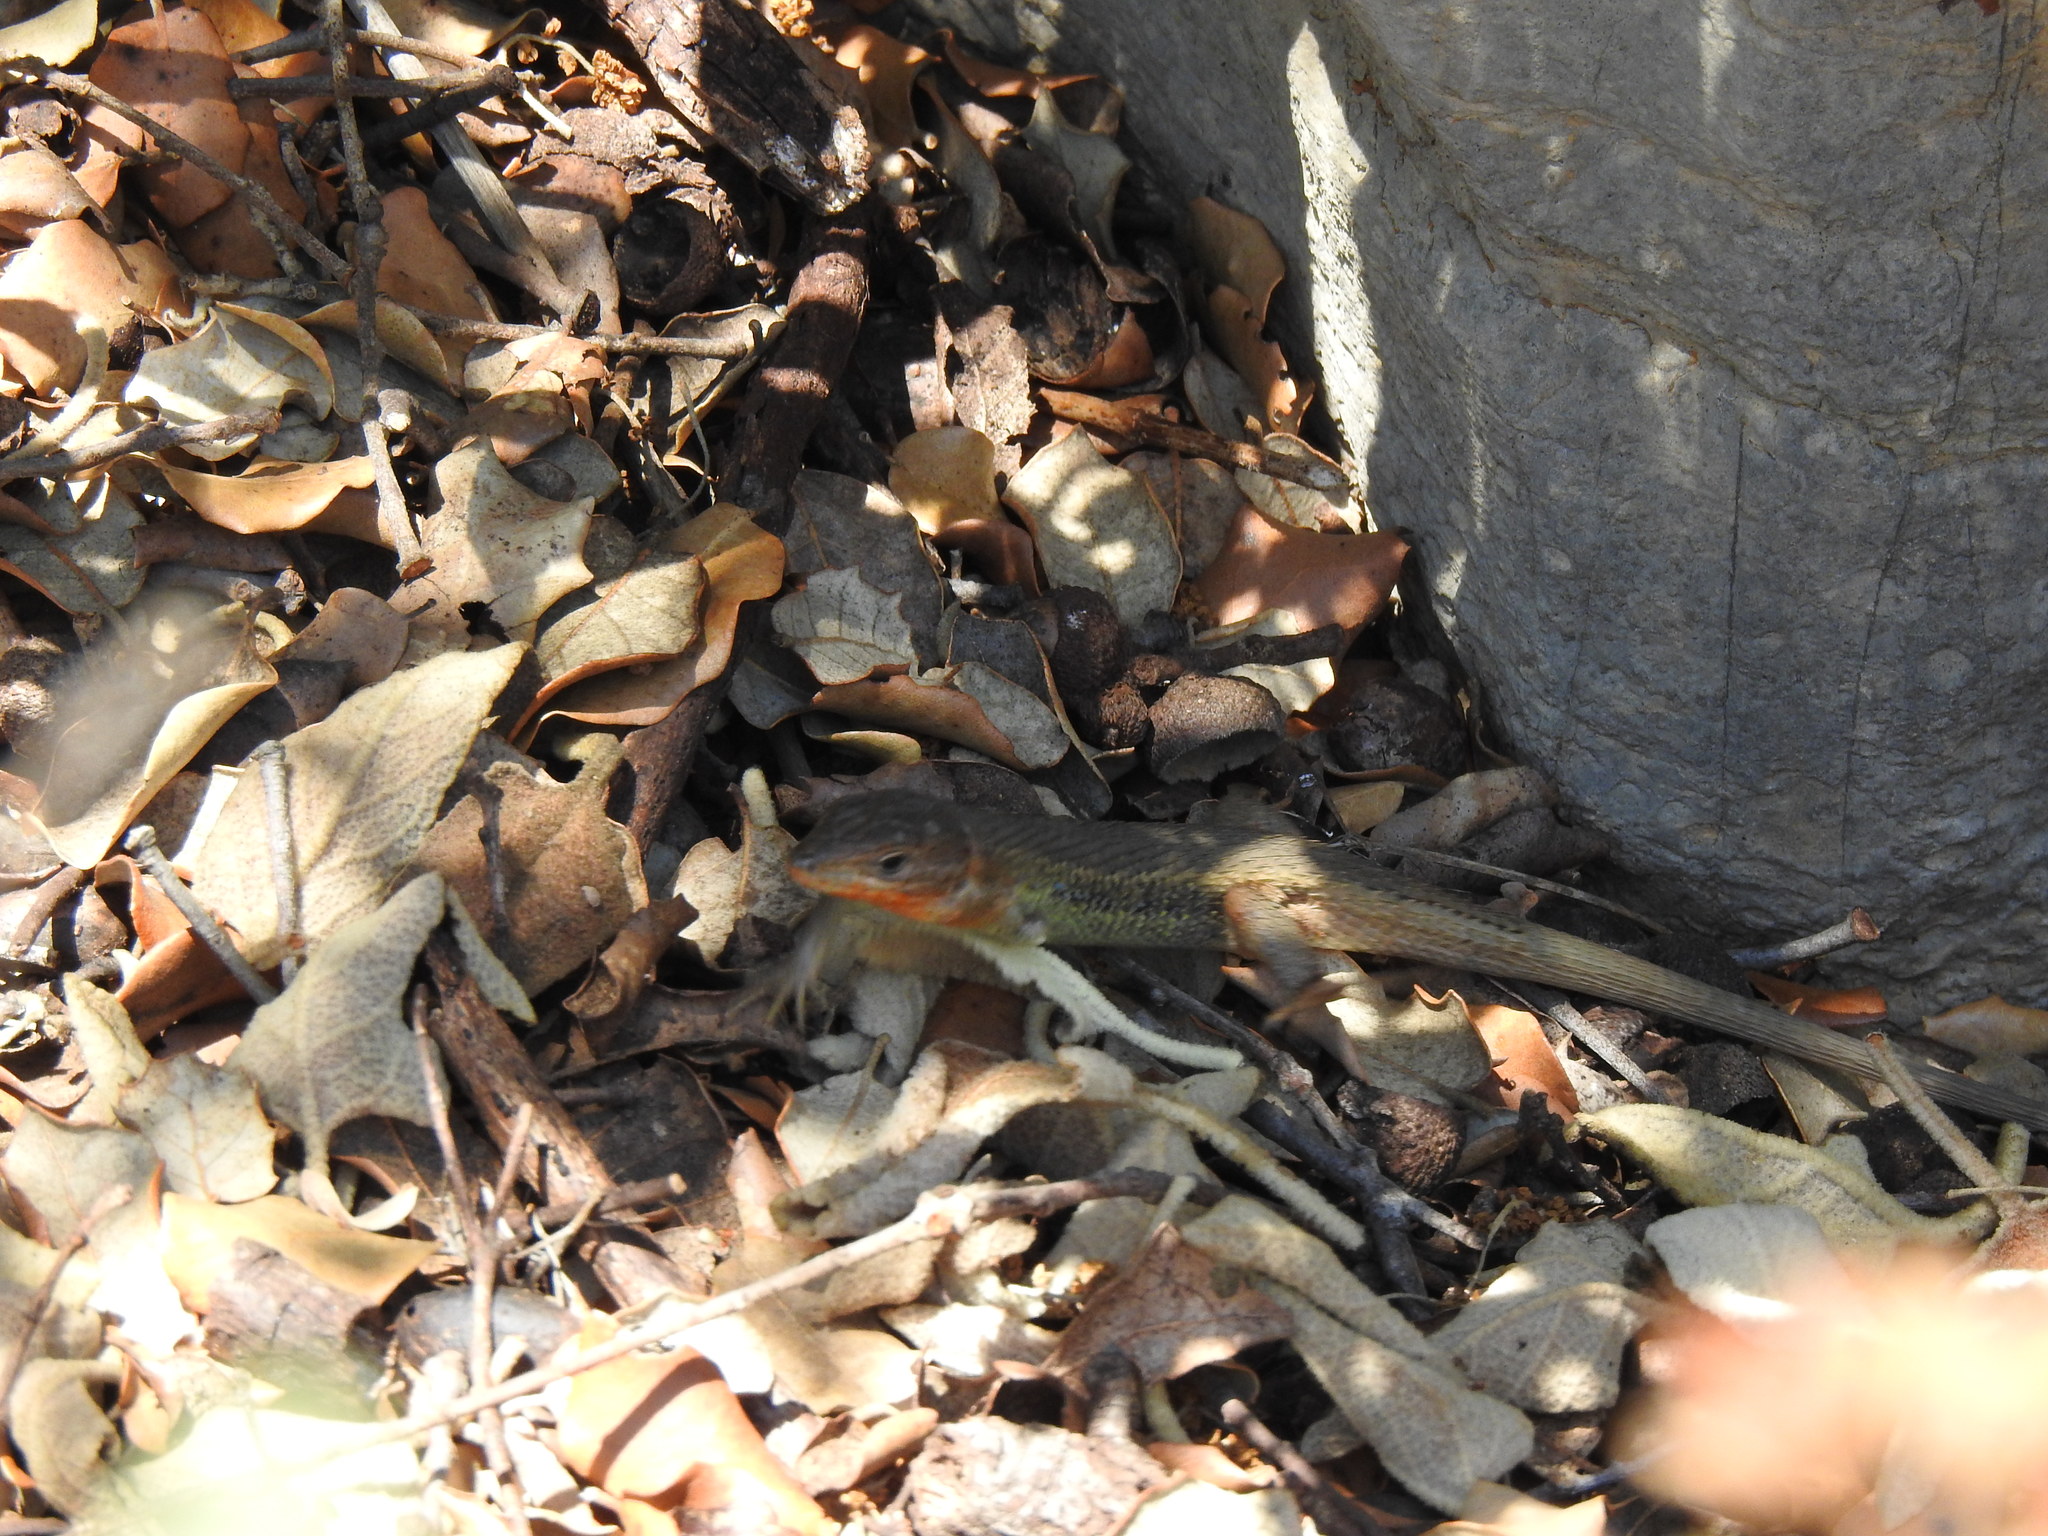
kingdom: Animalia
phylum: Chordata
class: Squamata
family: Lacertidae
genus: Psammodromus
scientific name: Psammodromus algirus
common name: Algerian psammodromus
